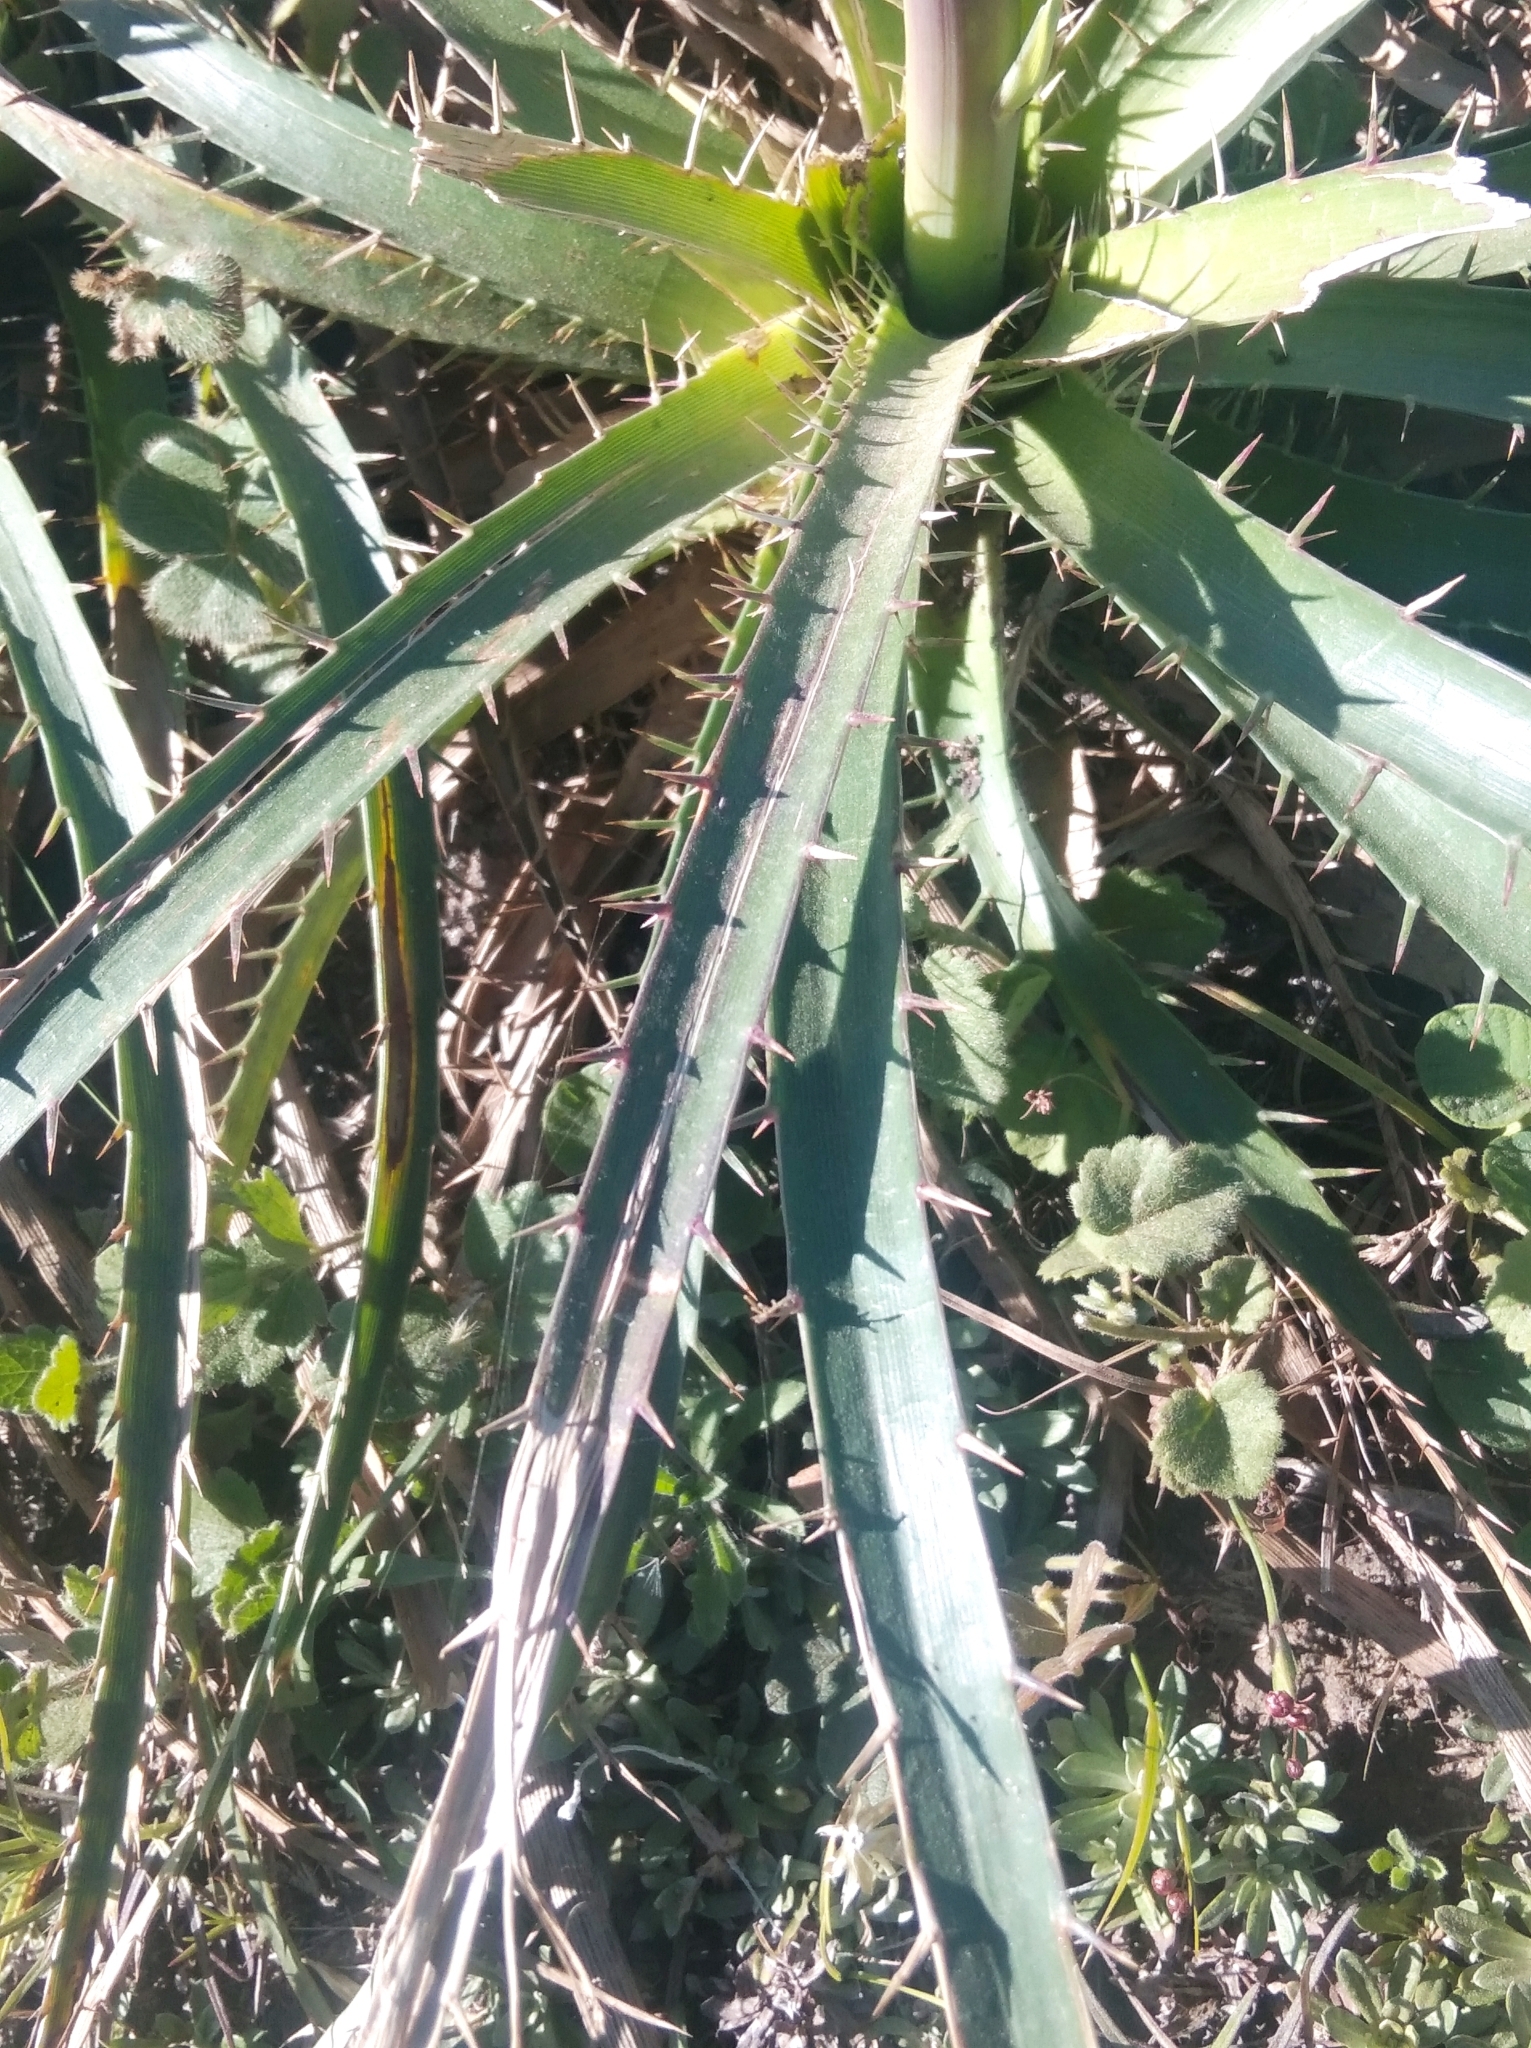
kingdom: Plantae
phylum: Tracheophyta
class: Magnoliopsida
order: Apiales
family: Apiaceae
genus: Eryngium
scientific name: Eryngium horridum
